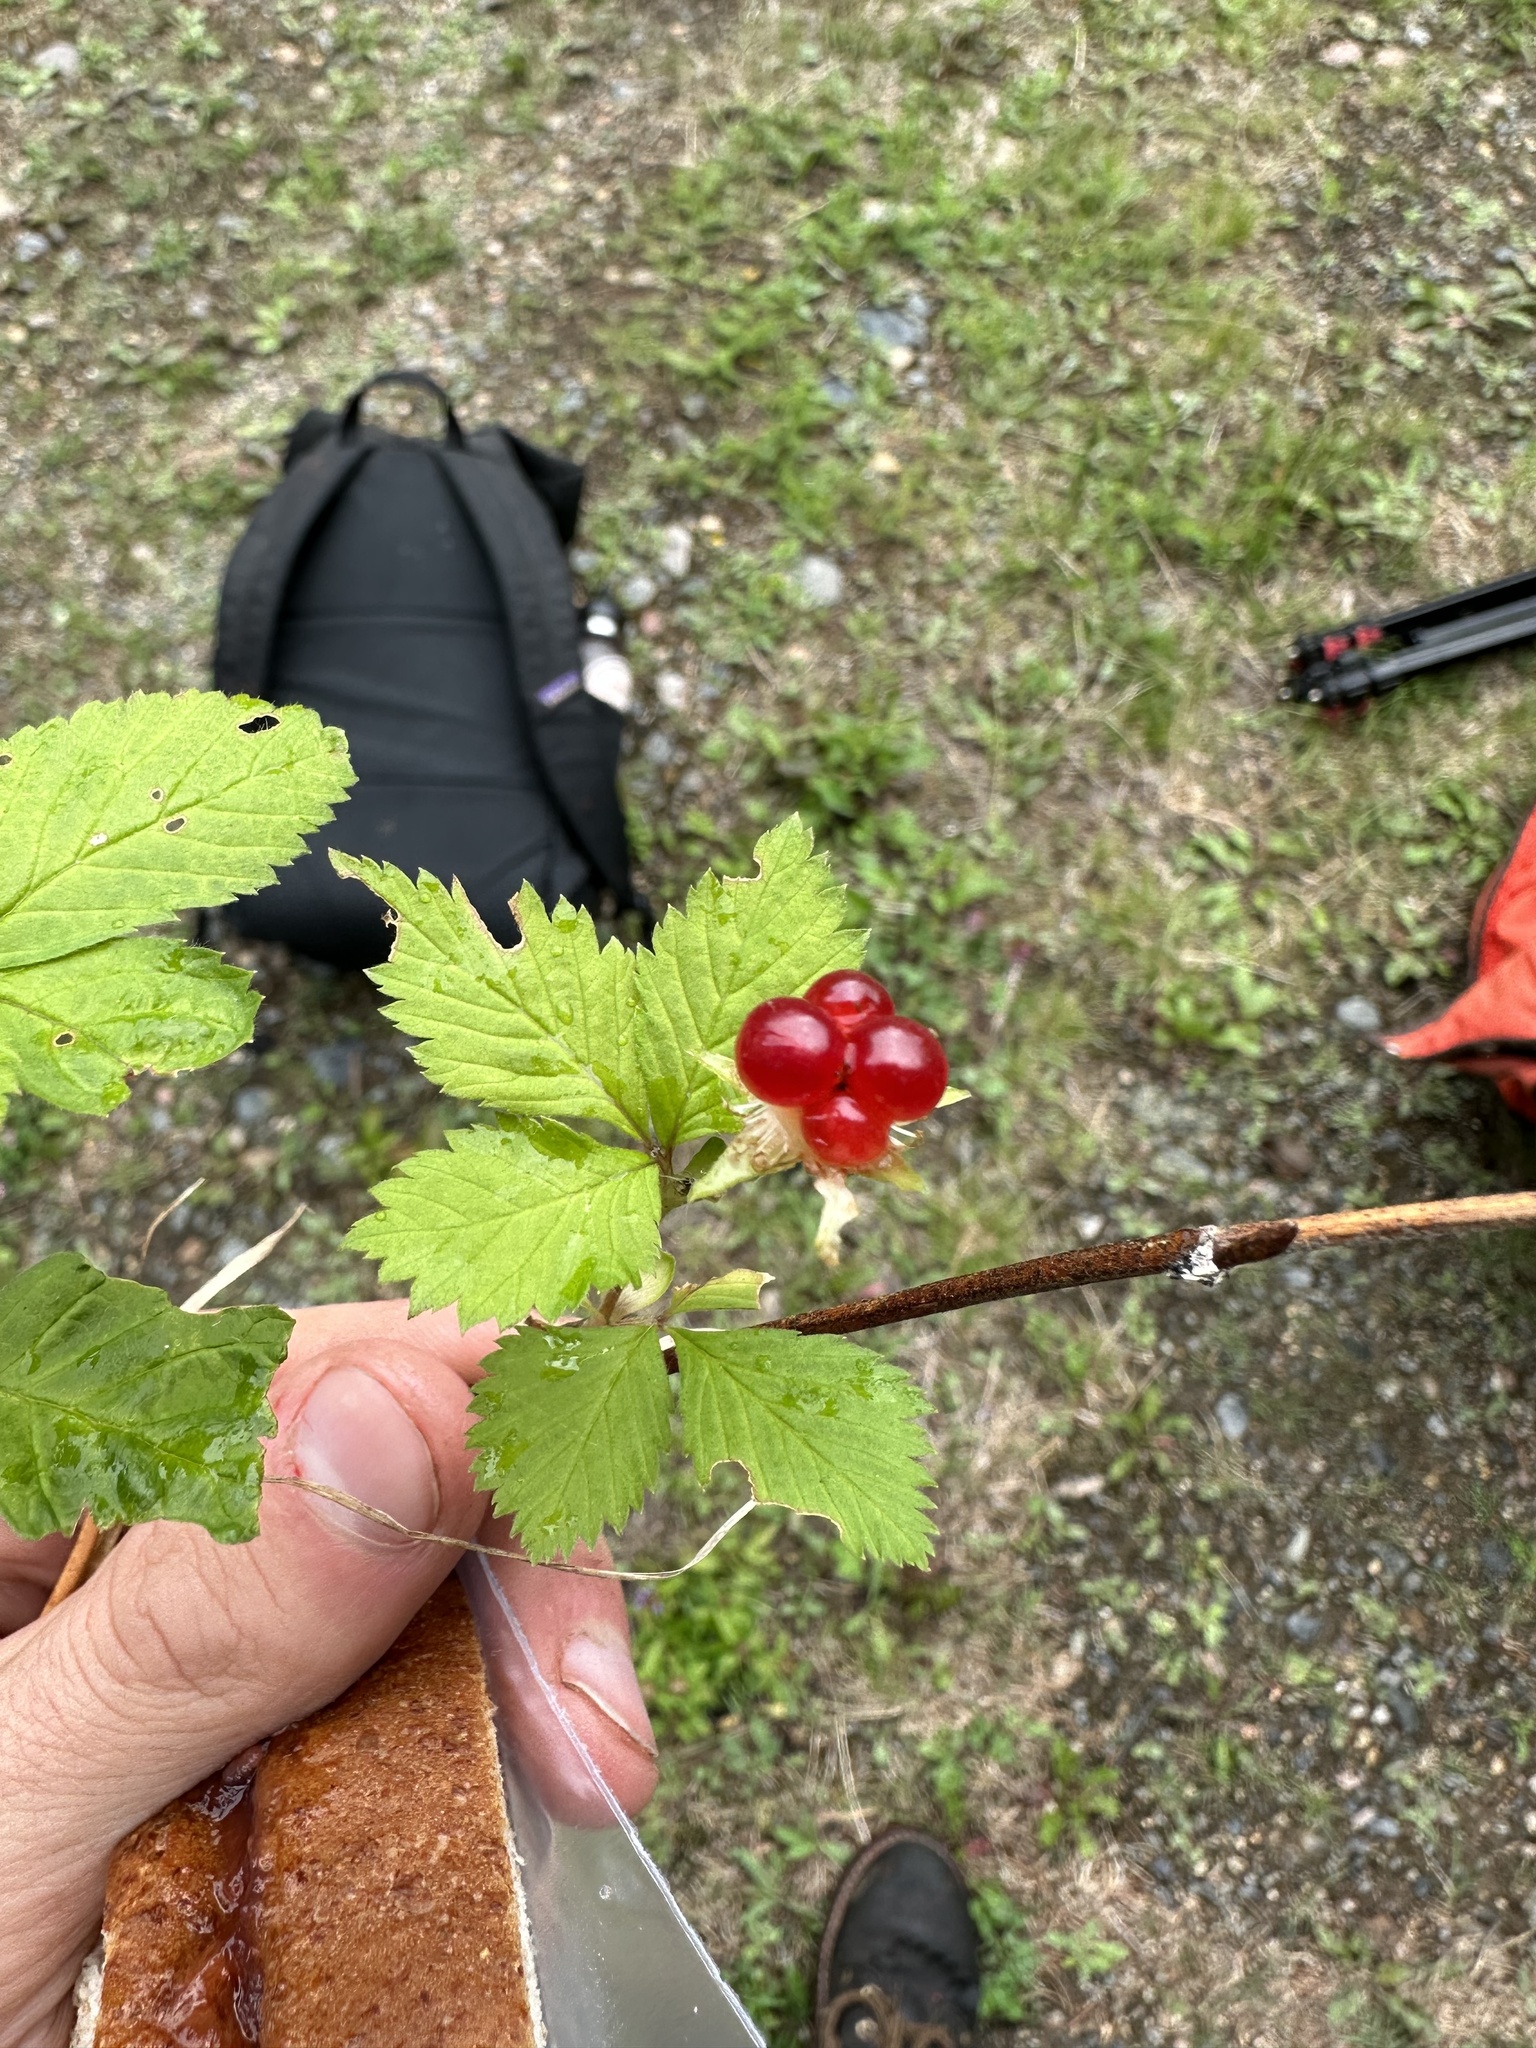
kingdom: Plantae
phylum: Tracheophyta
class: Magnoliopsida
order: Rosales
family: Rosaceae
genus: Rubus
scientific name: Rubus pubescens
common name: Dwarf raspberry
